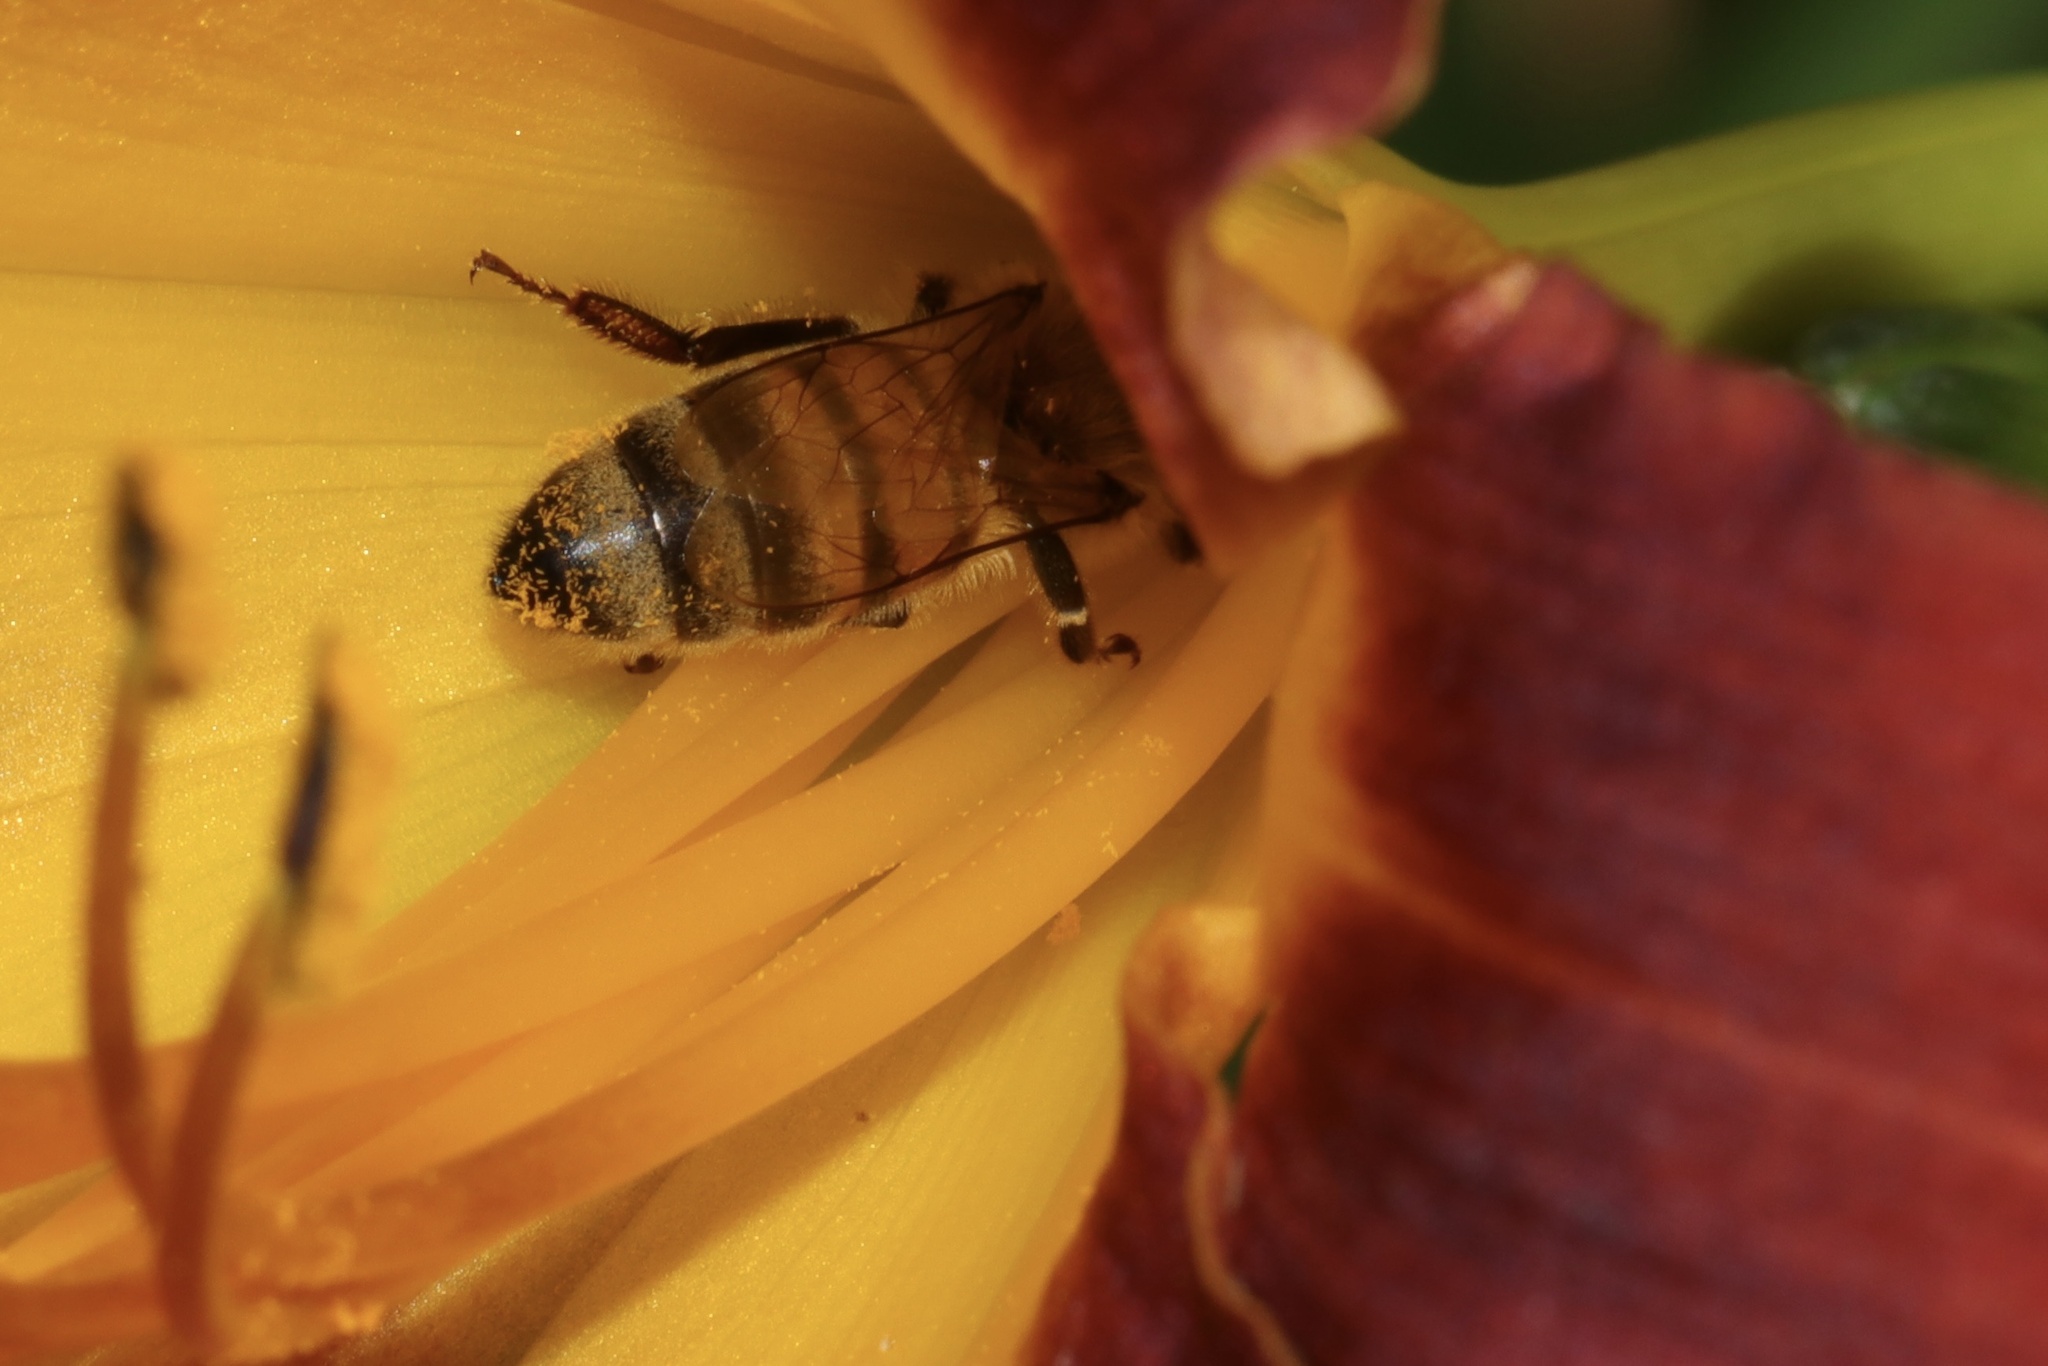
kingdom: Animalia
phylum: Arthropoda
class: Insecta
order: Hymenoptera
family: Apidae
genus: Apis
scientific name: Apis mellifera
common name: Honey bee
